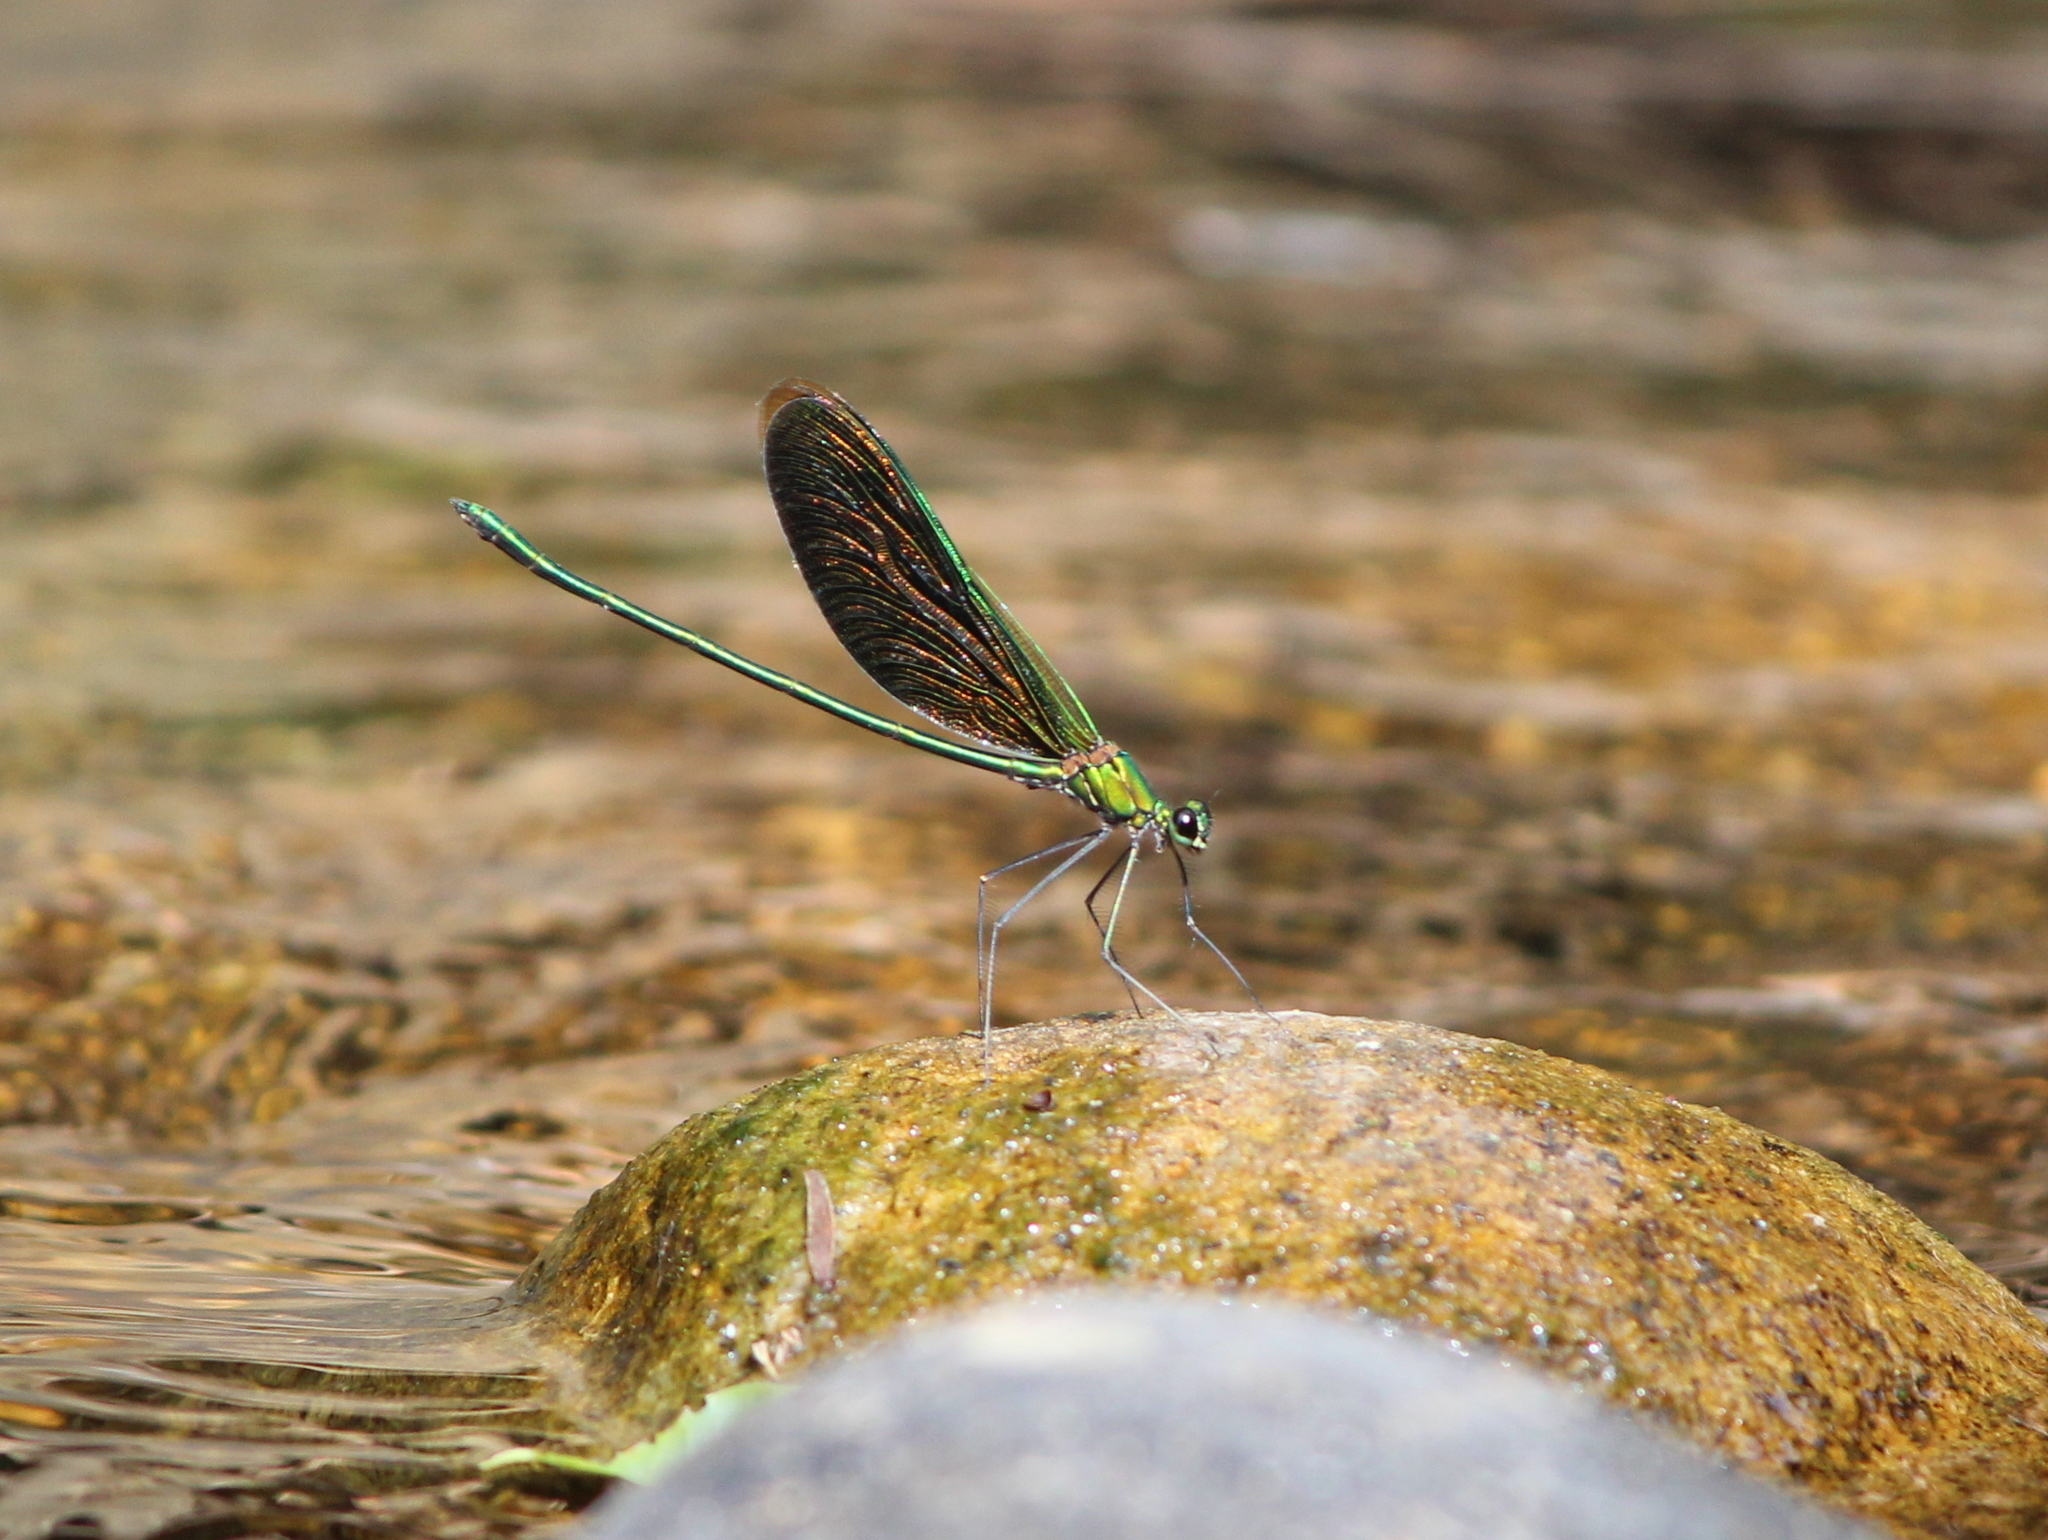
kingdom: Animalia
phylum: Arthropoda
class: Insecta
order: Odonata
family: Calopterygidae
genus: Neurobasis
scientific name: Neurobasis chinensis
